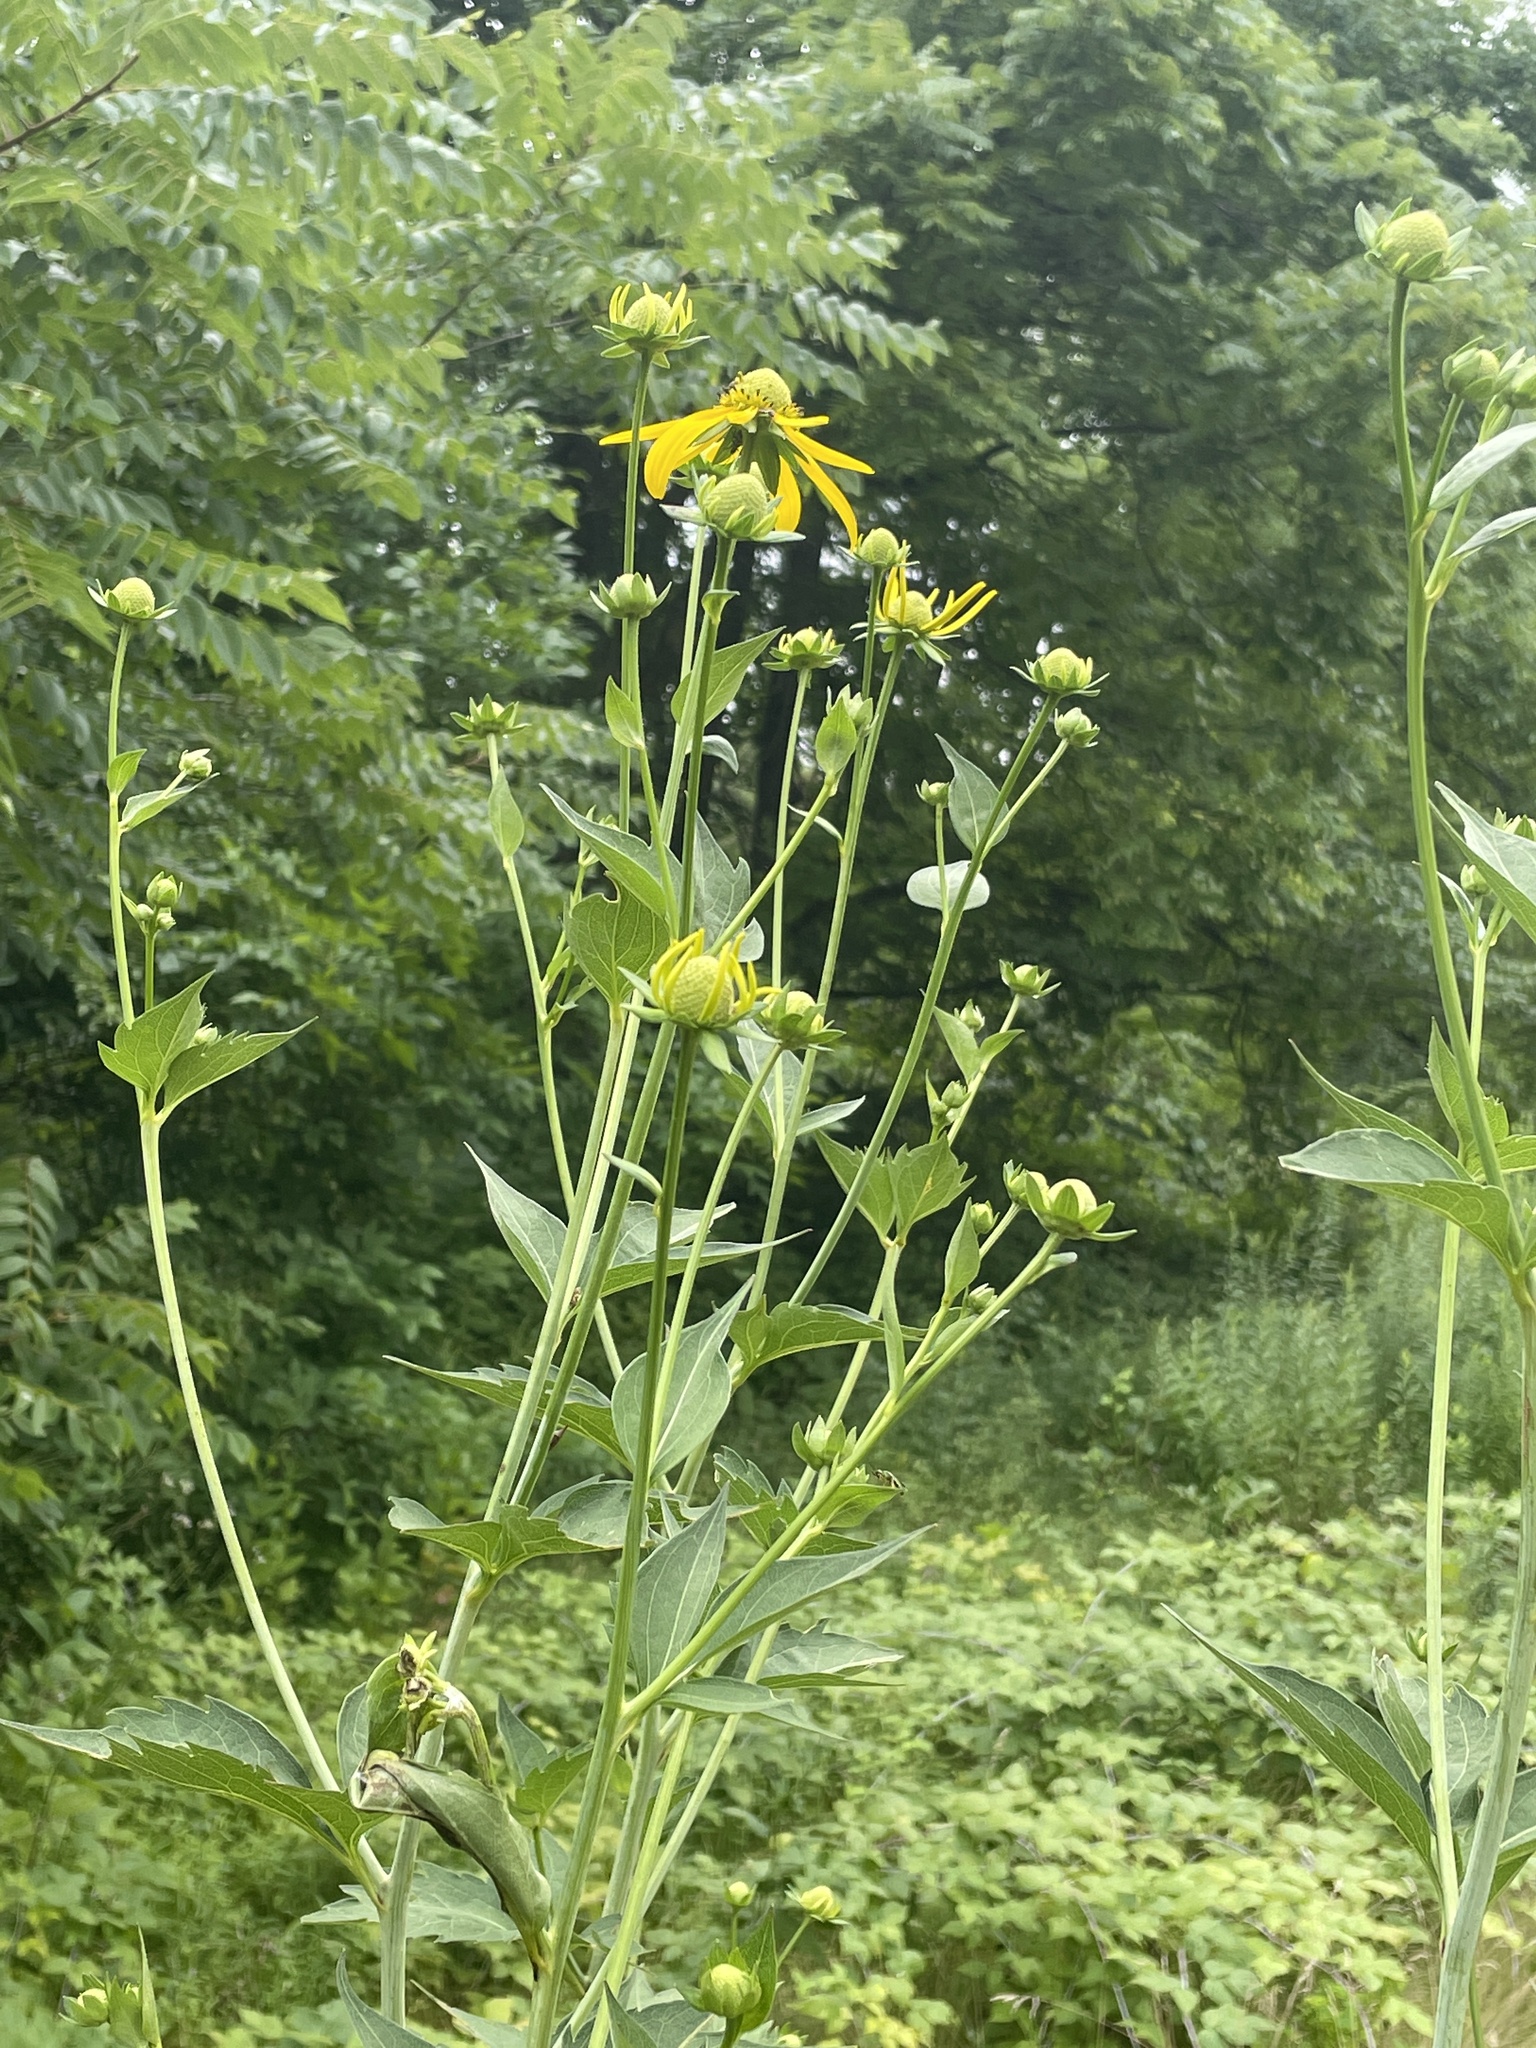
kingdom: Plantae
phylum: Tracheophyta
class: Magnoliopsida
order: Asterales
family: Asteraceae
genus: Rudbeckia
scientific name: Rudbeckia laciniata
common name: Coneflower
